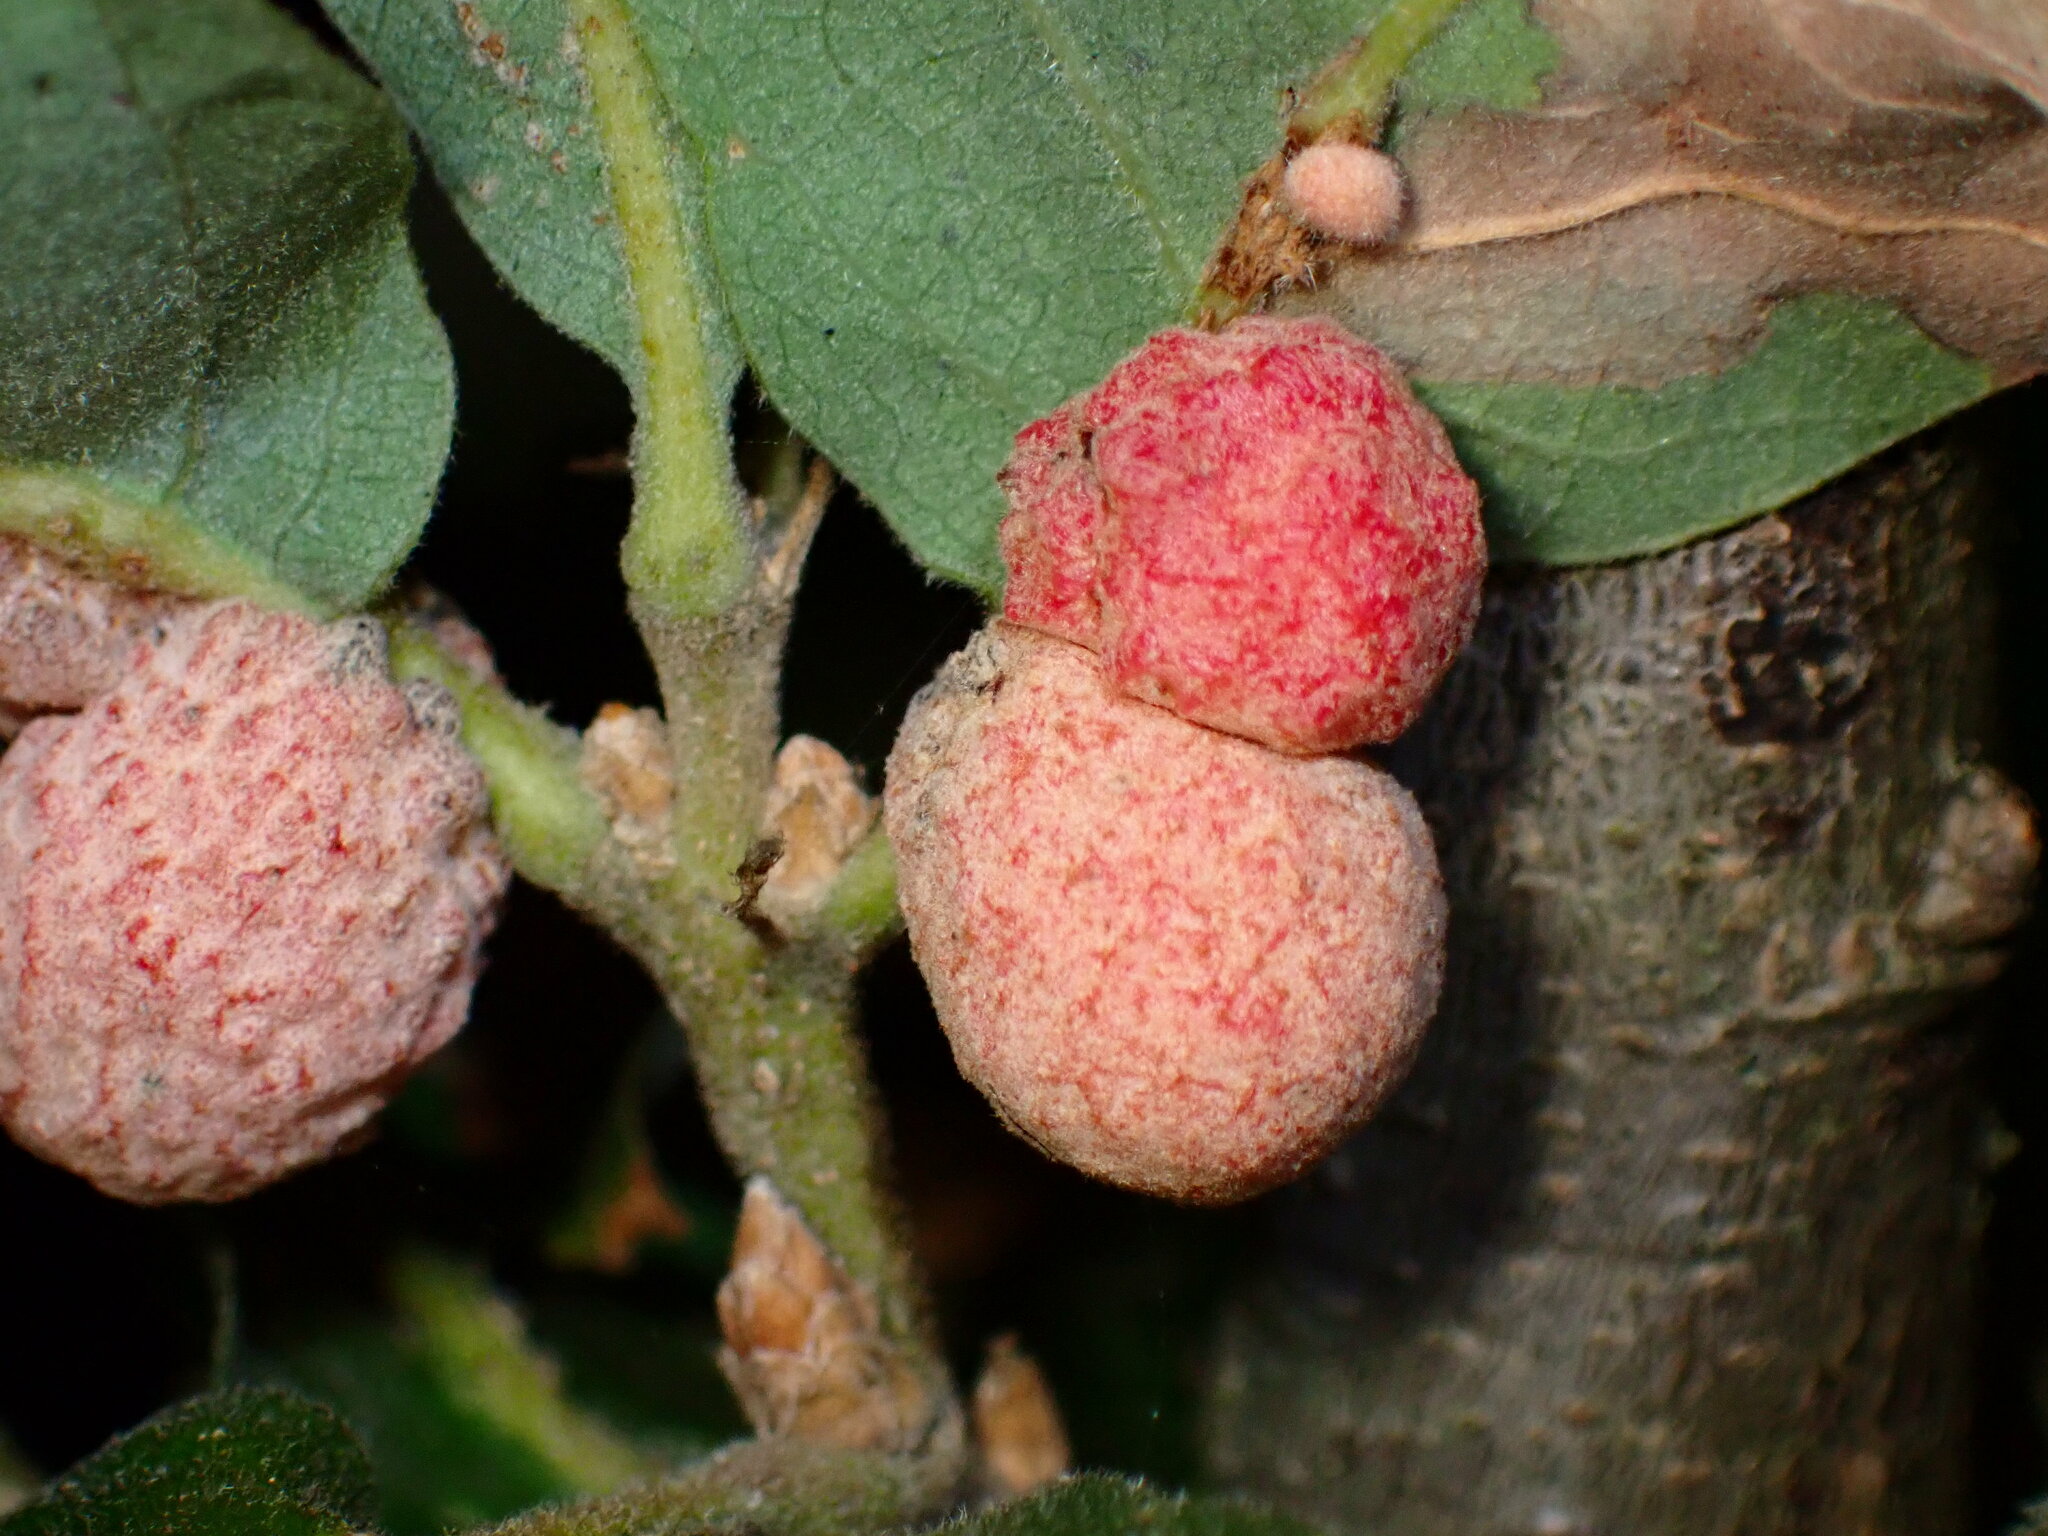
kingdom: Animalia
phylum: Arthropoda
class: Insecta
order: Hymenoptera
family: Cynipidae
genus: Cynips
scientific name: Cynips conspicua
